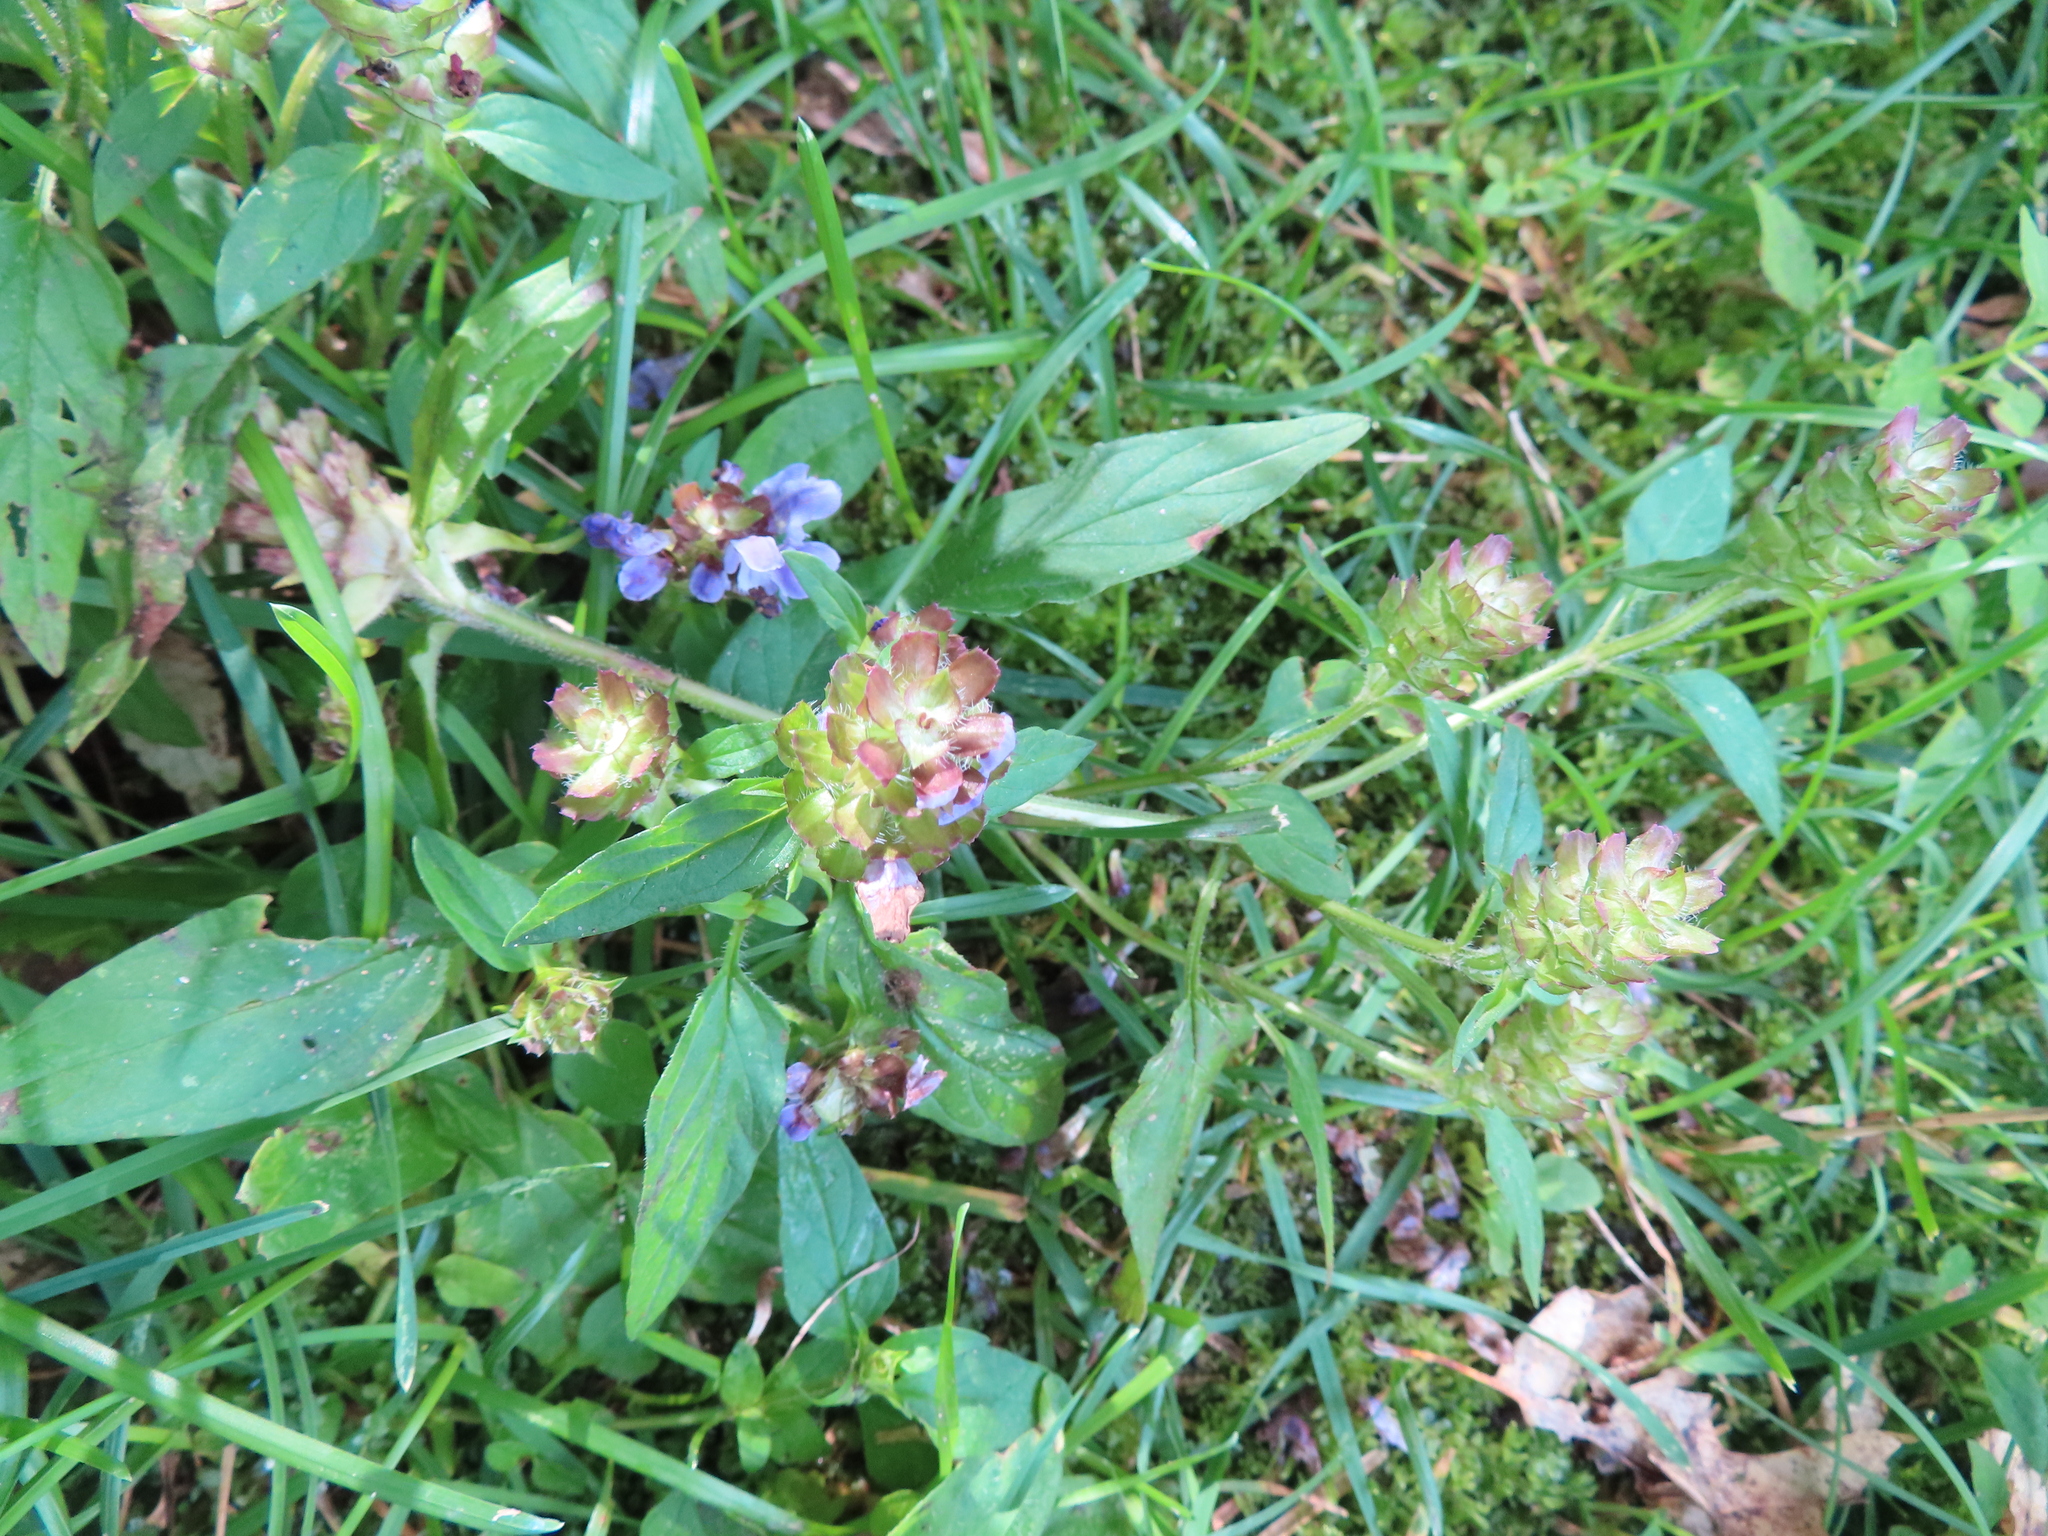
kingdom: Plantae
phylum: Tracheophyta
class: Magnoliopsida
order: Lamiales
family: Lamiaceae
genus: Prunella
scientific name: Prunella vulgaris
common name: Heal-all
